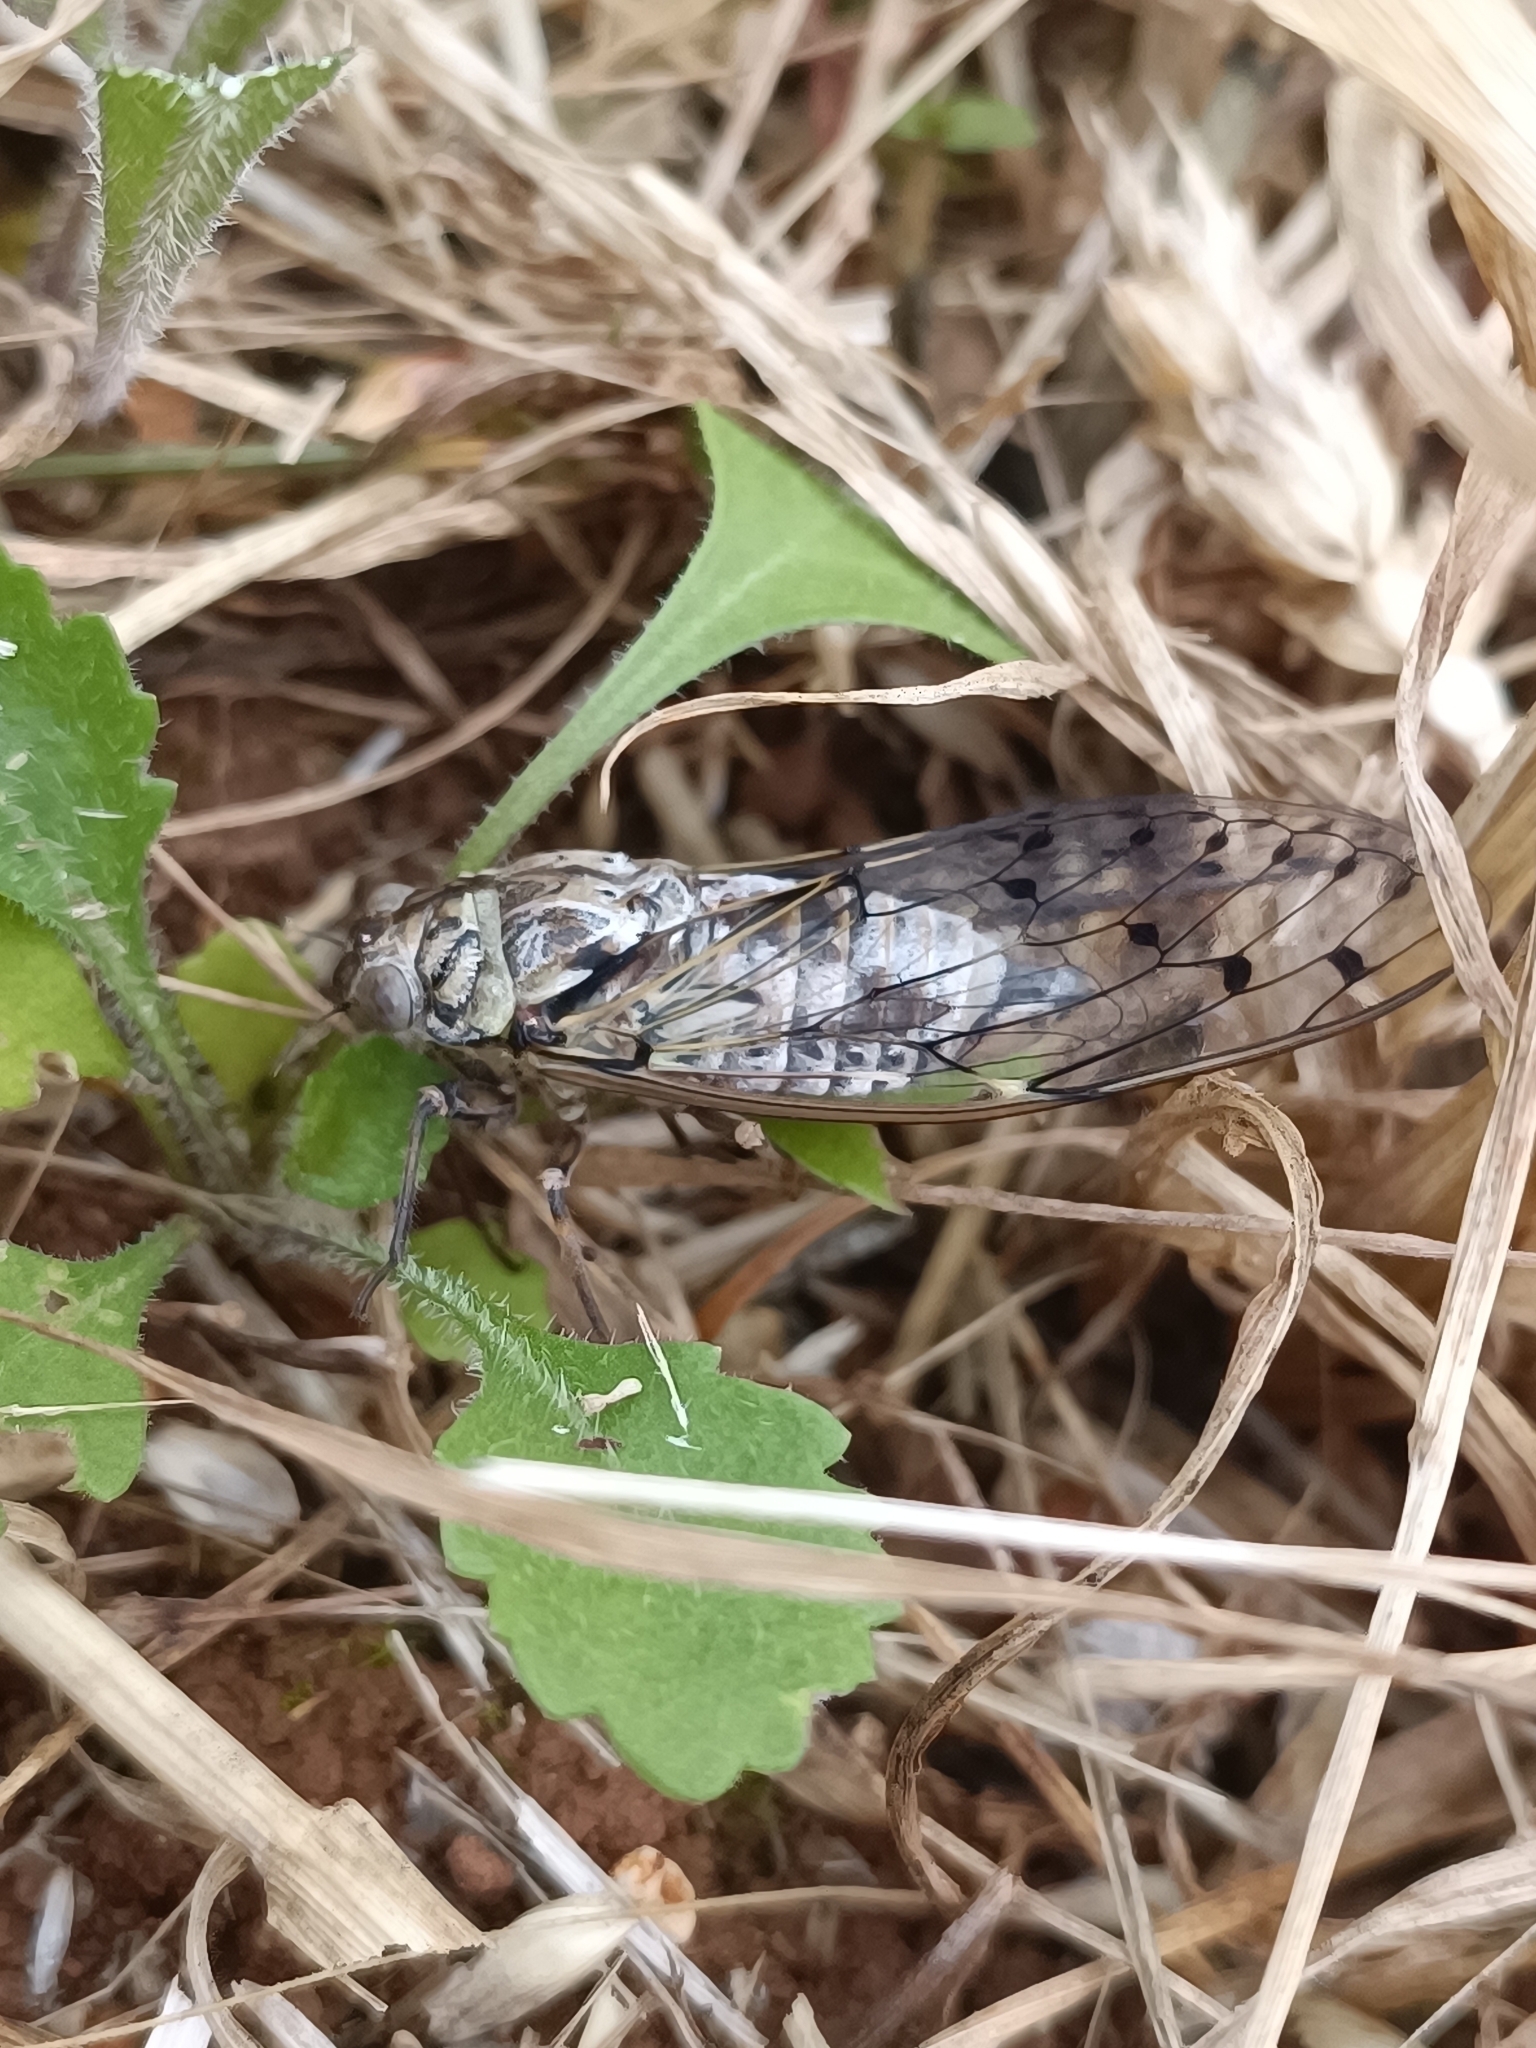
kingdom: Animalia
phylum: Arthropoda
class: Insecta
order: Hemiptera
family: Cicadidae
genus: Cicada
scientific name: Cicada orni
